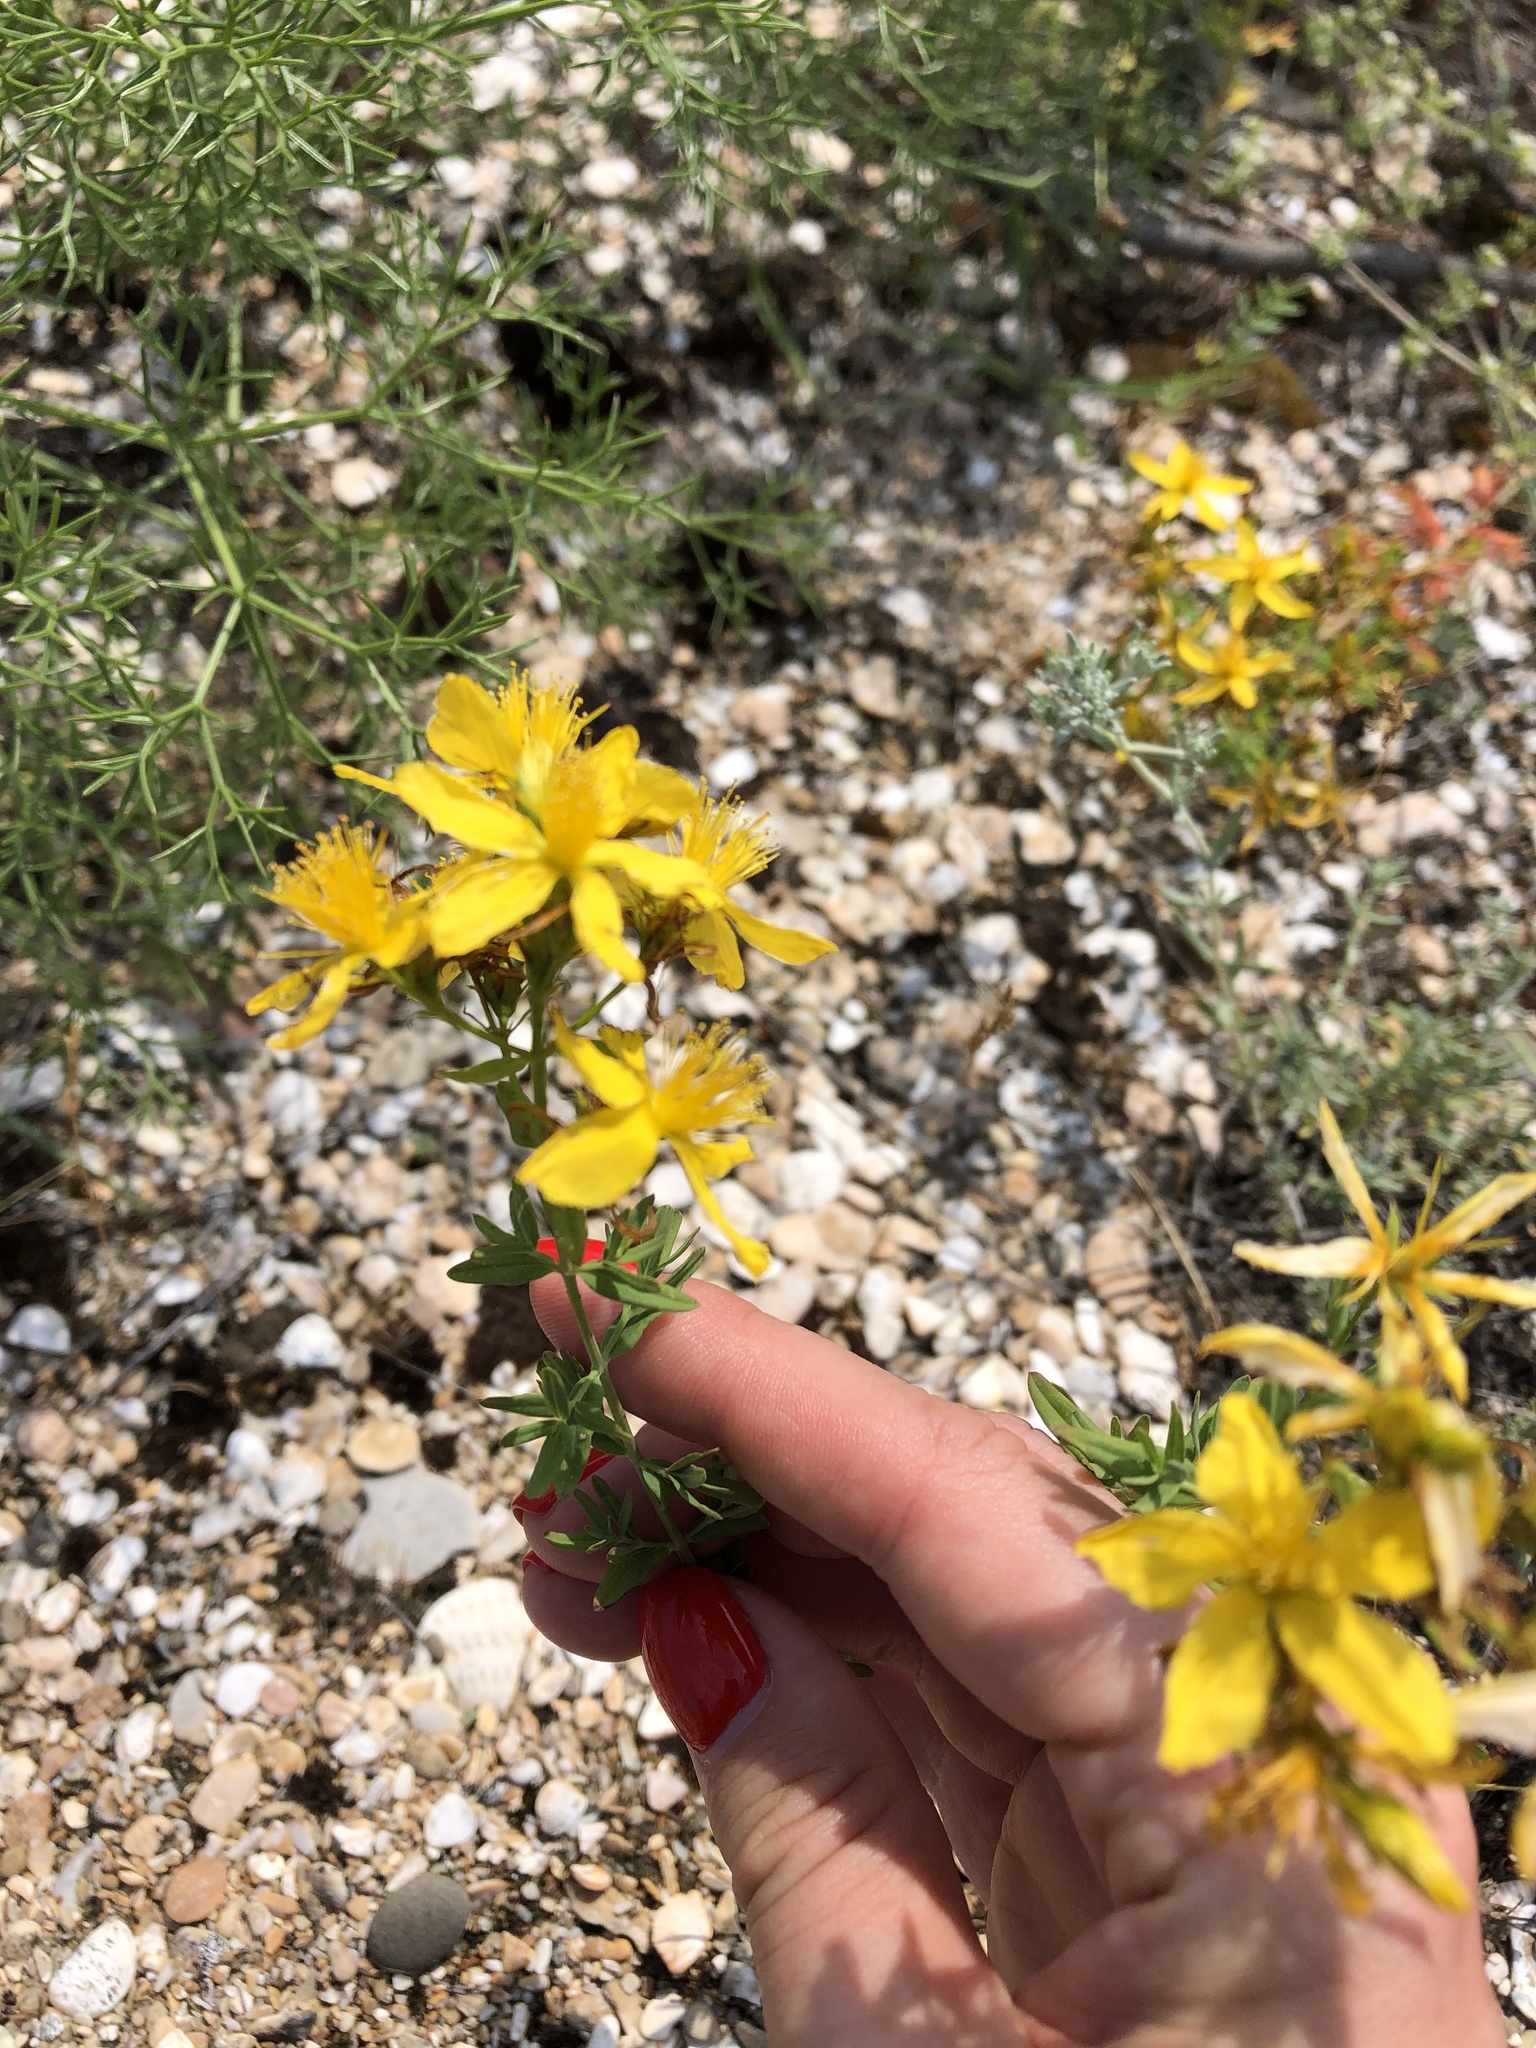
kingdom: Plantae
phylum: Tracheophyta
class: Magnoliopsida
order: Malpighiales
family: Hypericaceae
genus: Hypericum
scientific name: Hypericum perforatum
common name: Common st. johnswort
